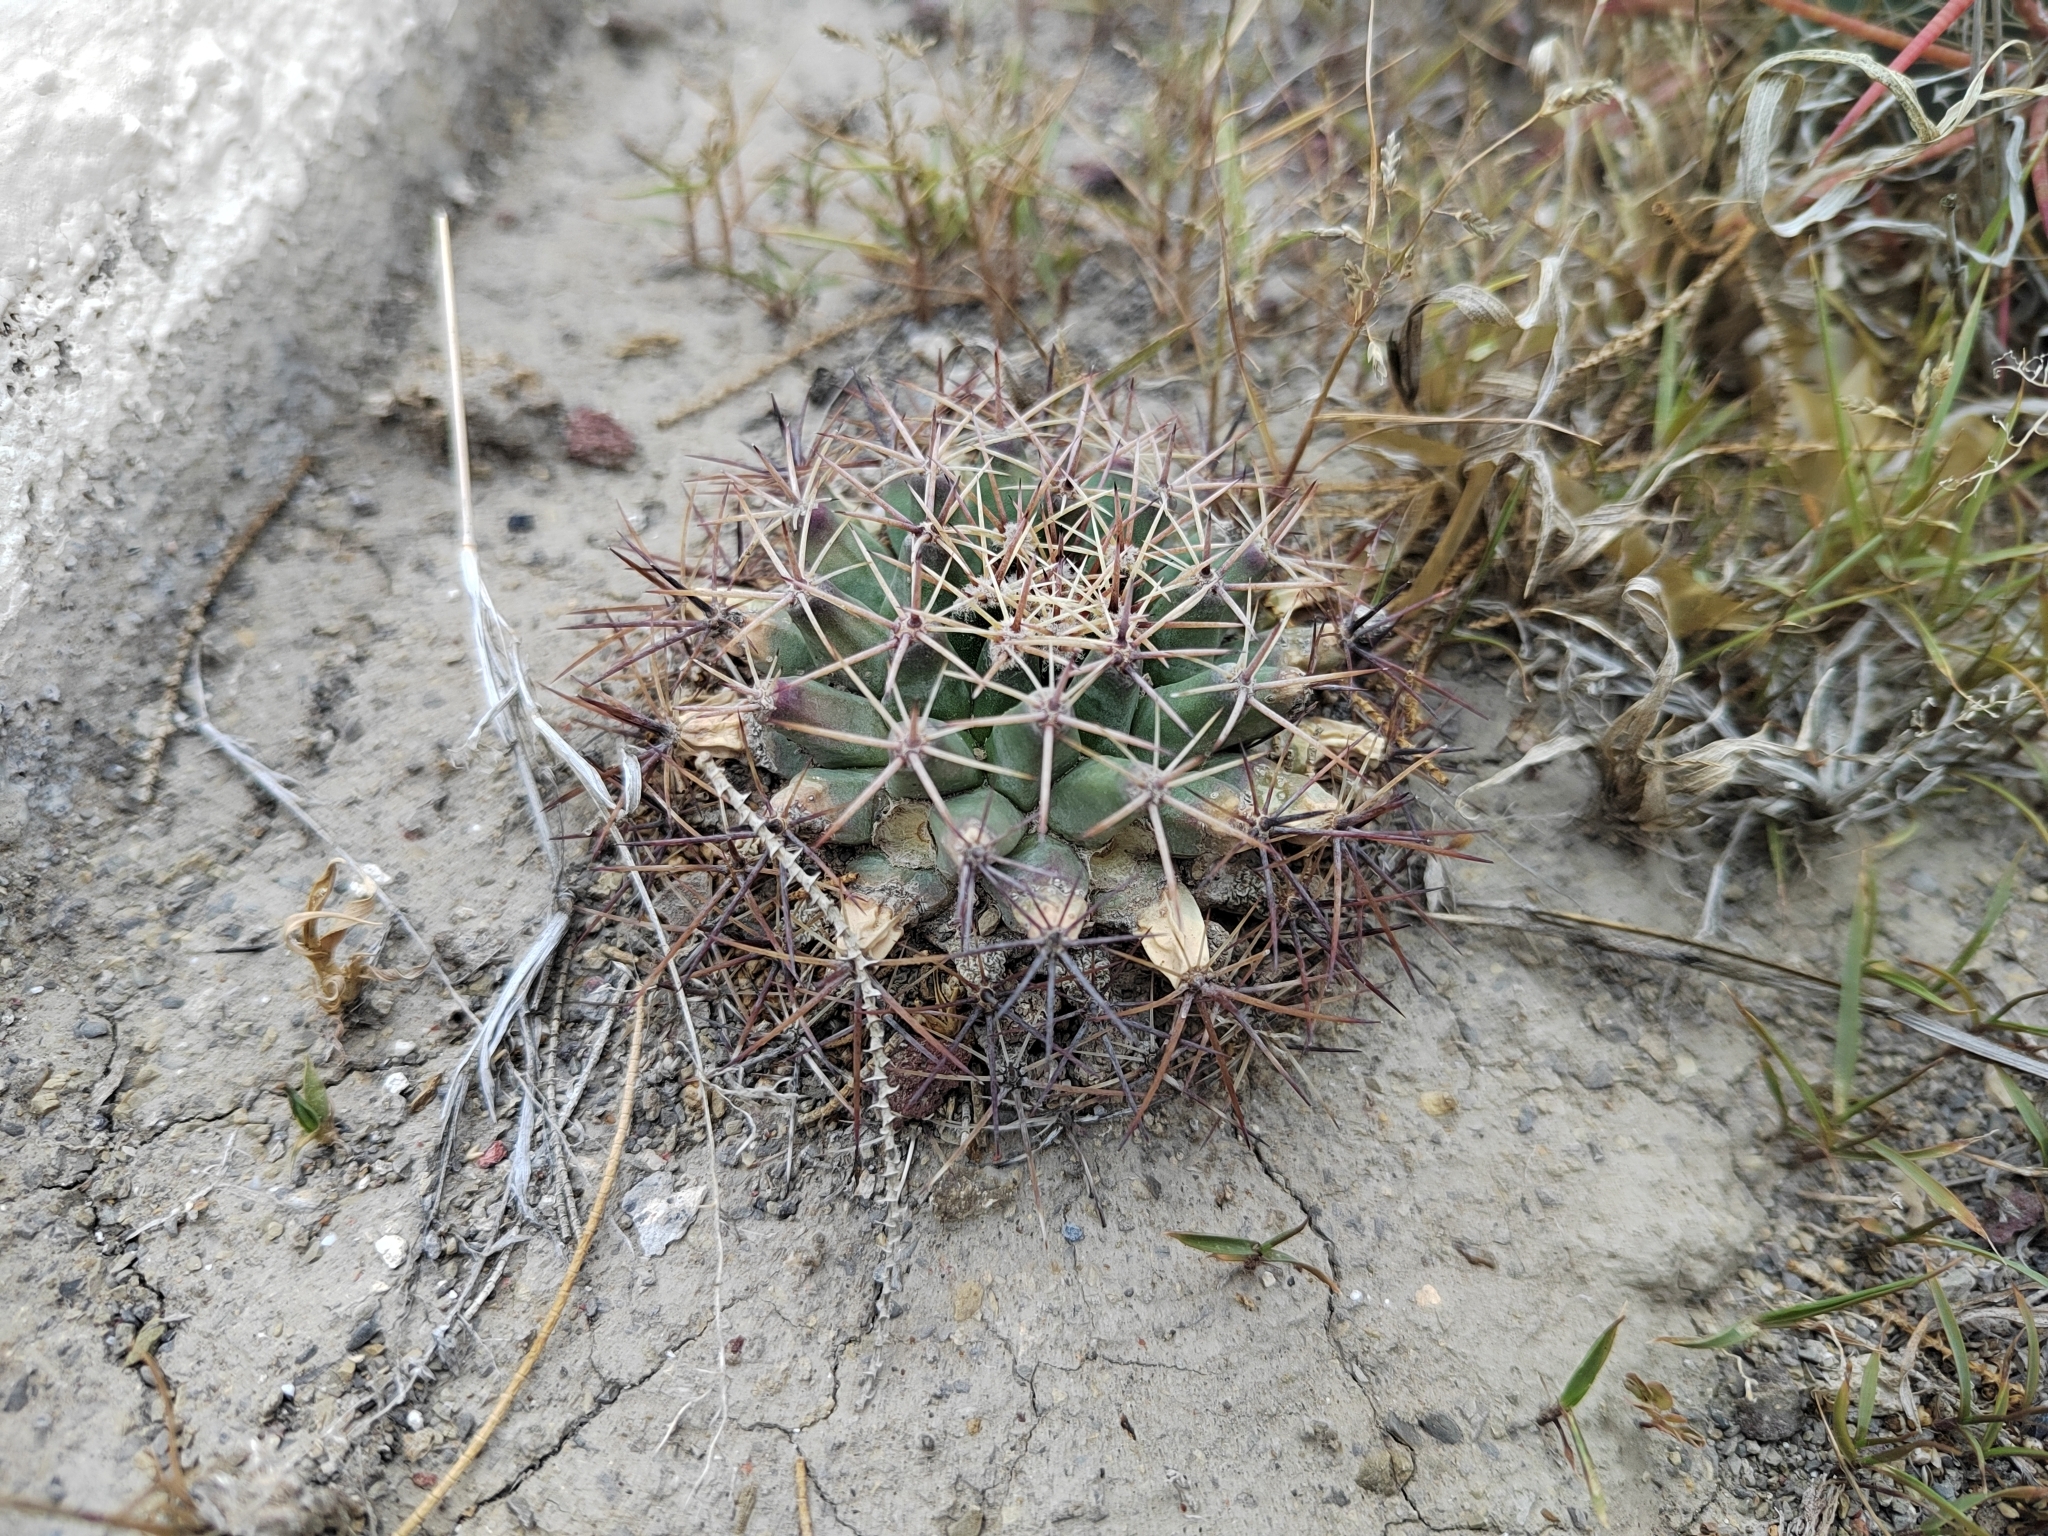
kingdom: Plantae
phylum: Tracheophyta
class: Magnoliopsida
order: Caryophyllales
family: Cactaceae
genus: Mammillaria
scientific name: Mammillaria heyderi
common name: Little nipple cactus
